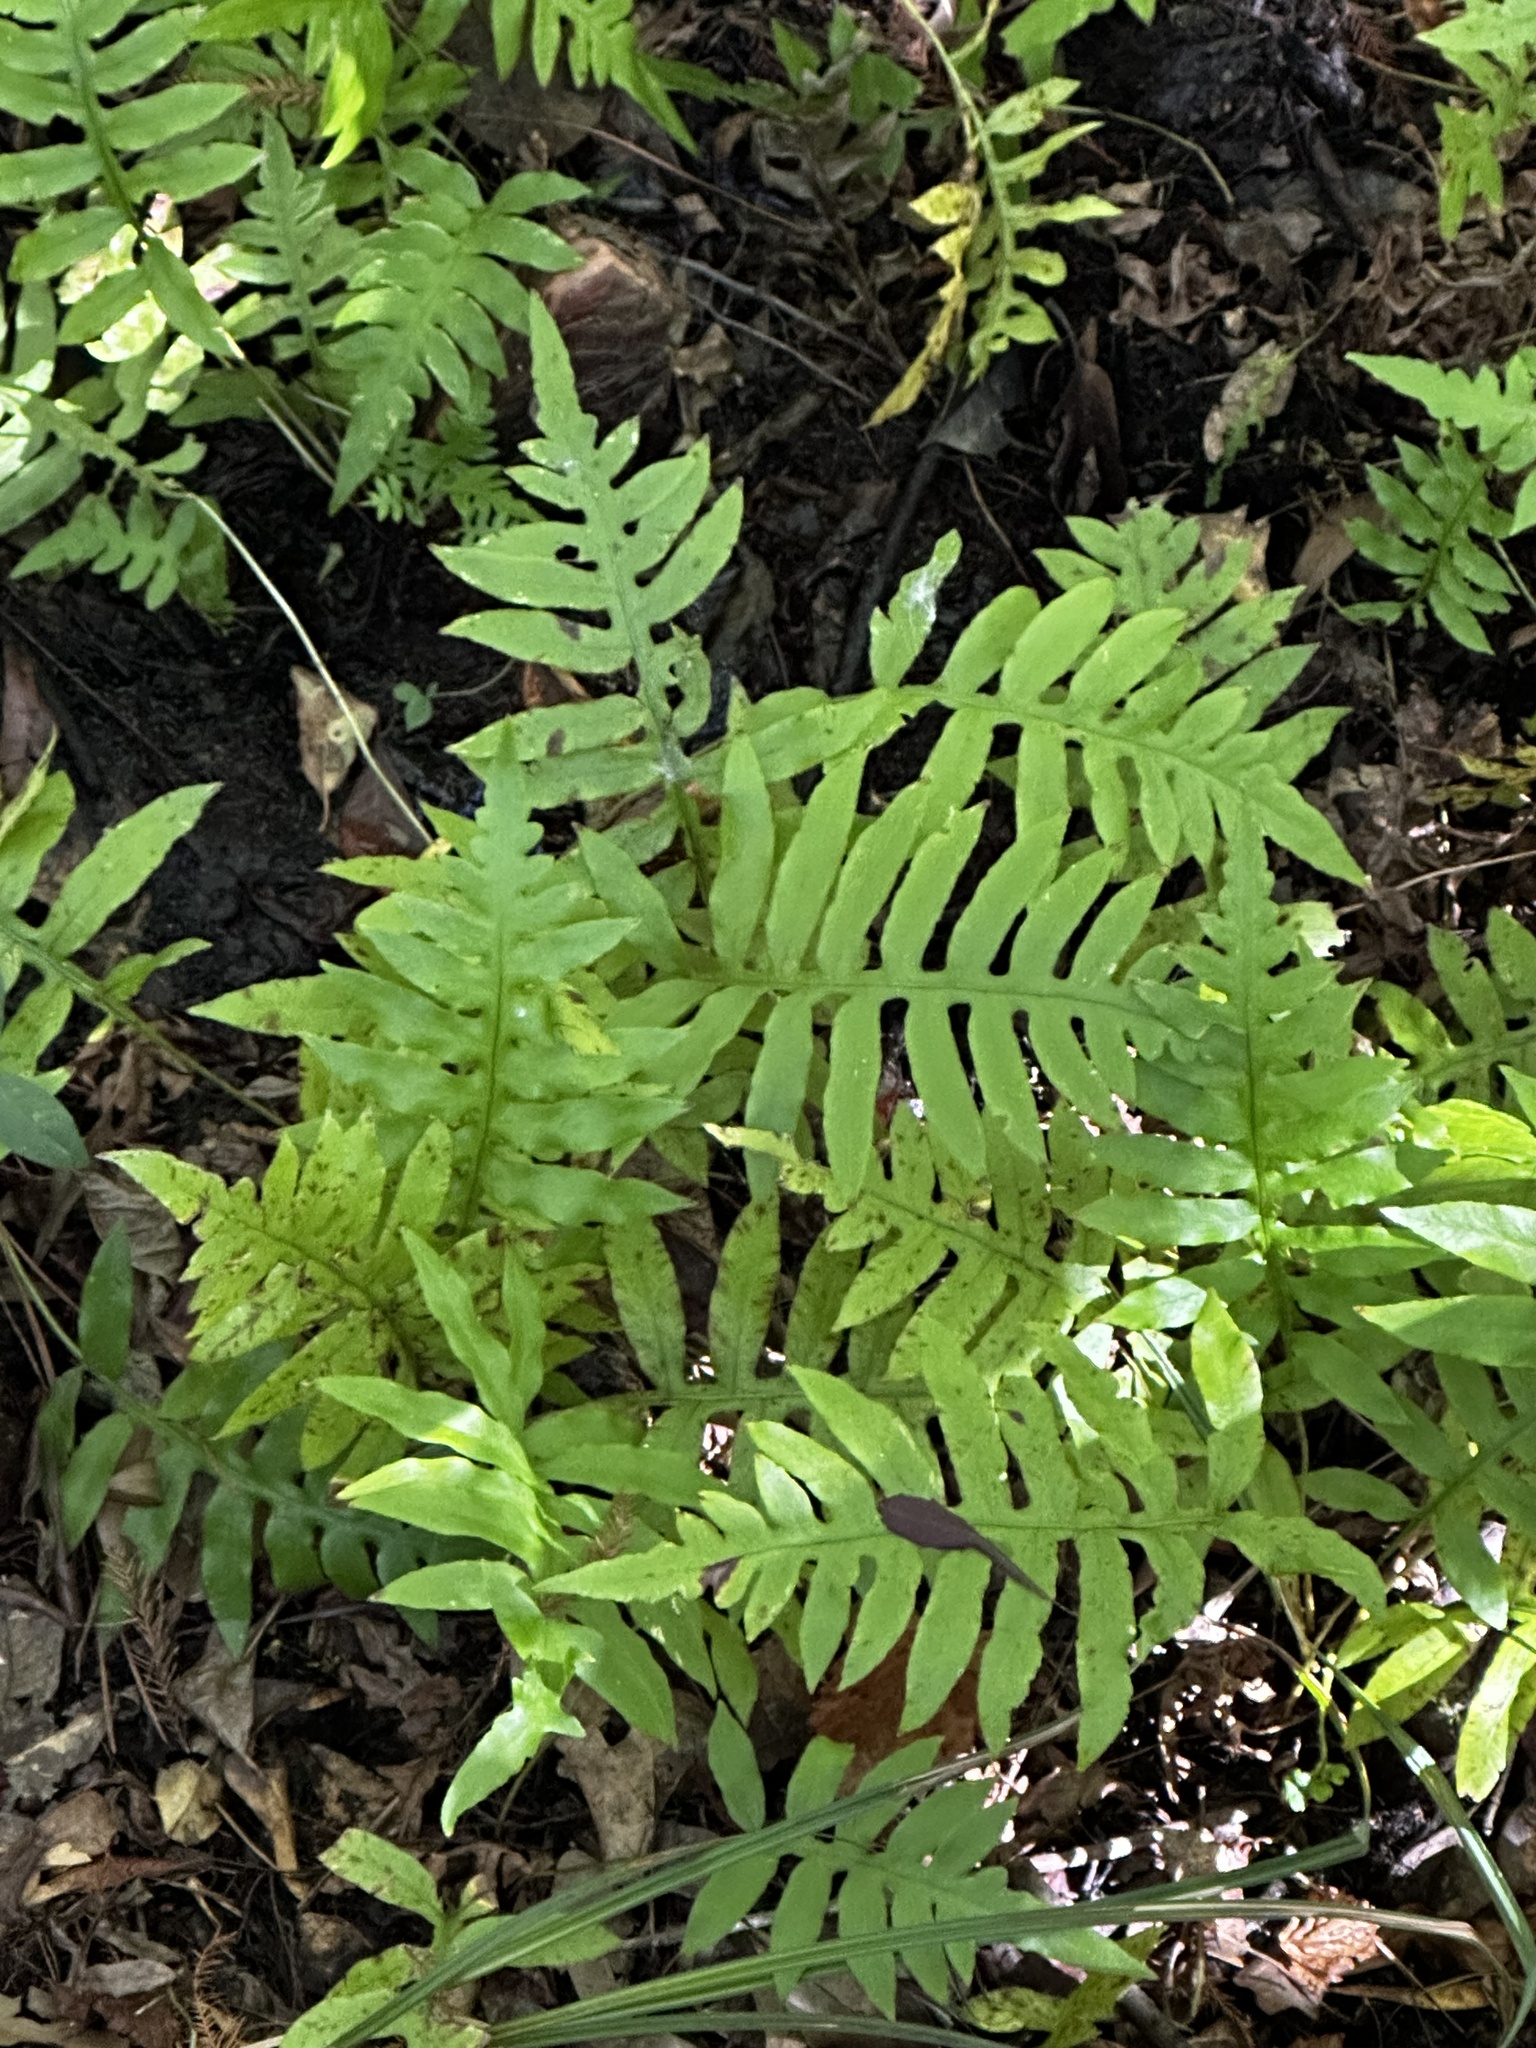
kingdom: Plantae
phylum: Tracheophyta
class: Polypodiopsida
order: Polypodiales
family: Blechnaceae
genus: Lorinseria
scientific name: Lorinseria areolata
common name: Dwarf chain fern
